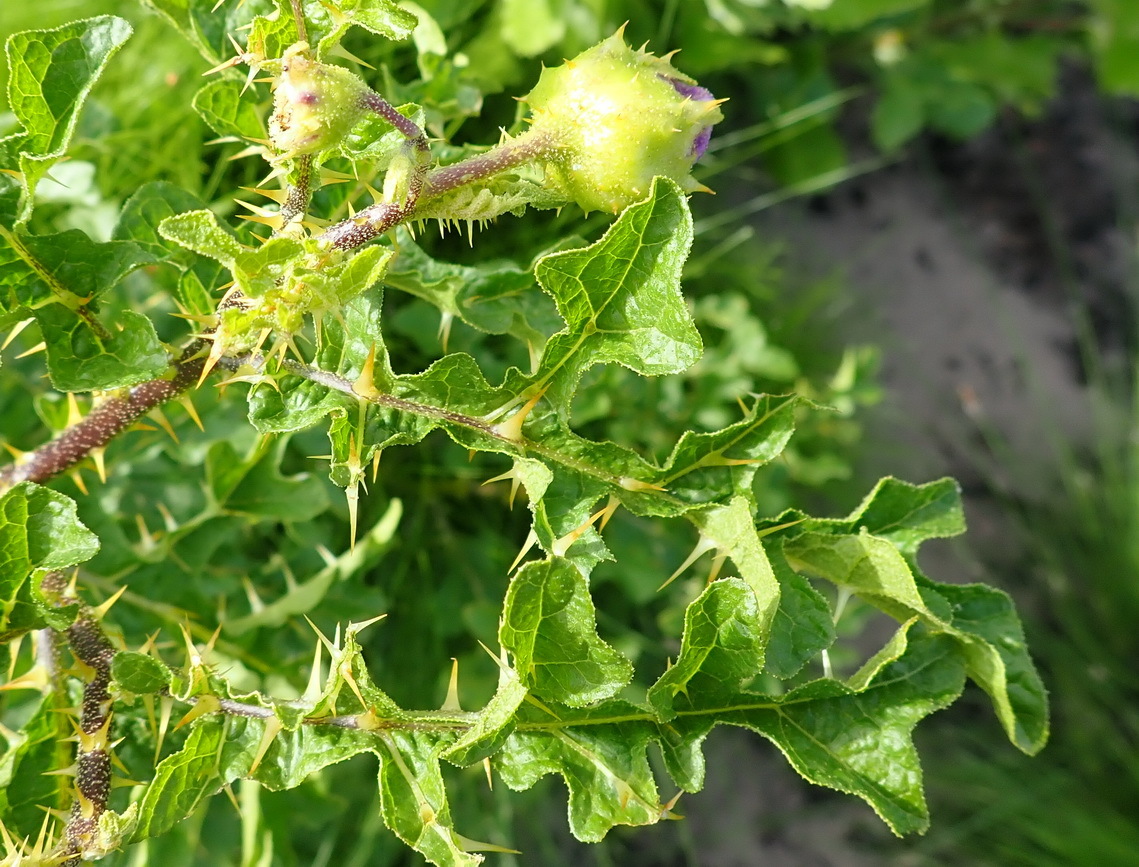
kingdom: Plantae
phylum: Tracheophyta
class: Magnoliopsida
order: Solanales
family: Solanaceae
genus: Solanum
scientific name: Solanum linnaeanum
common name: Nightshade
